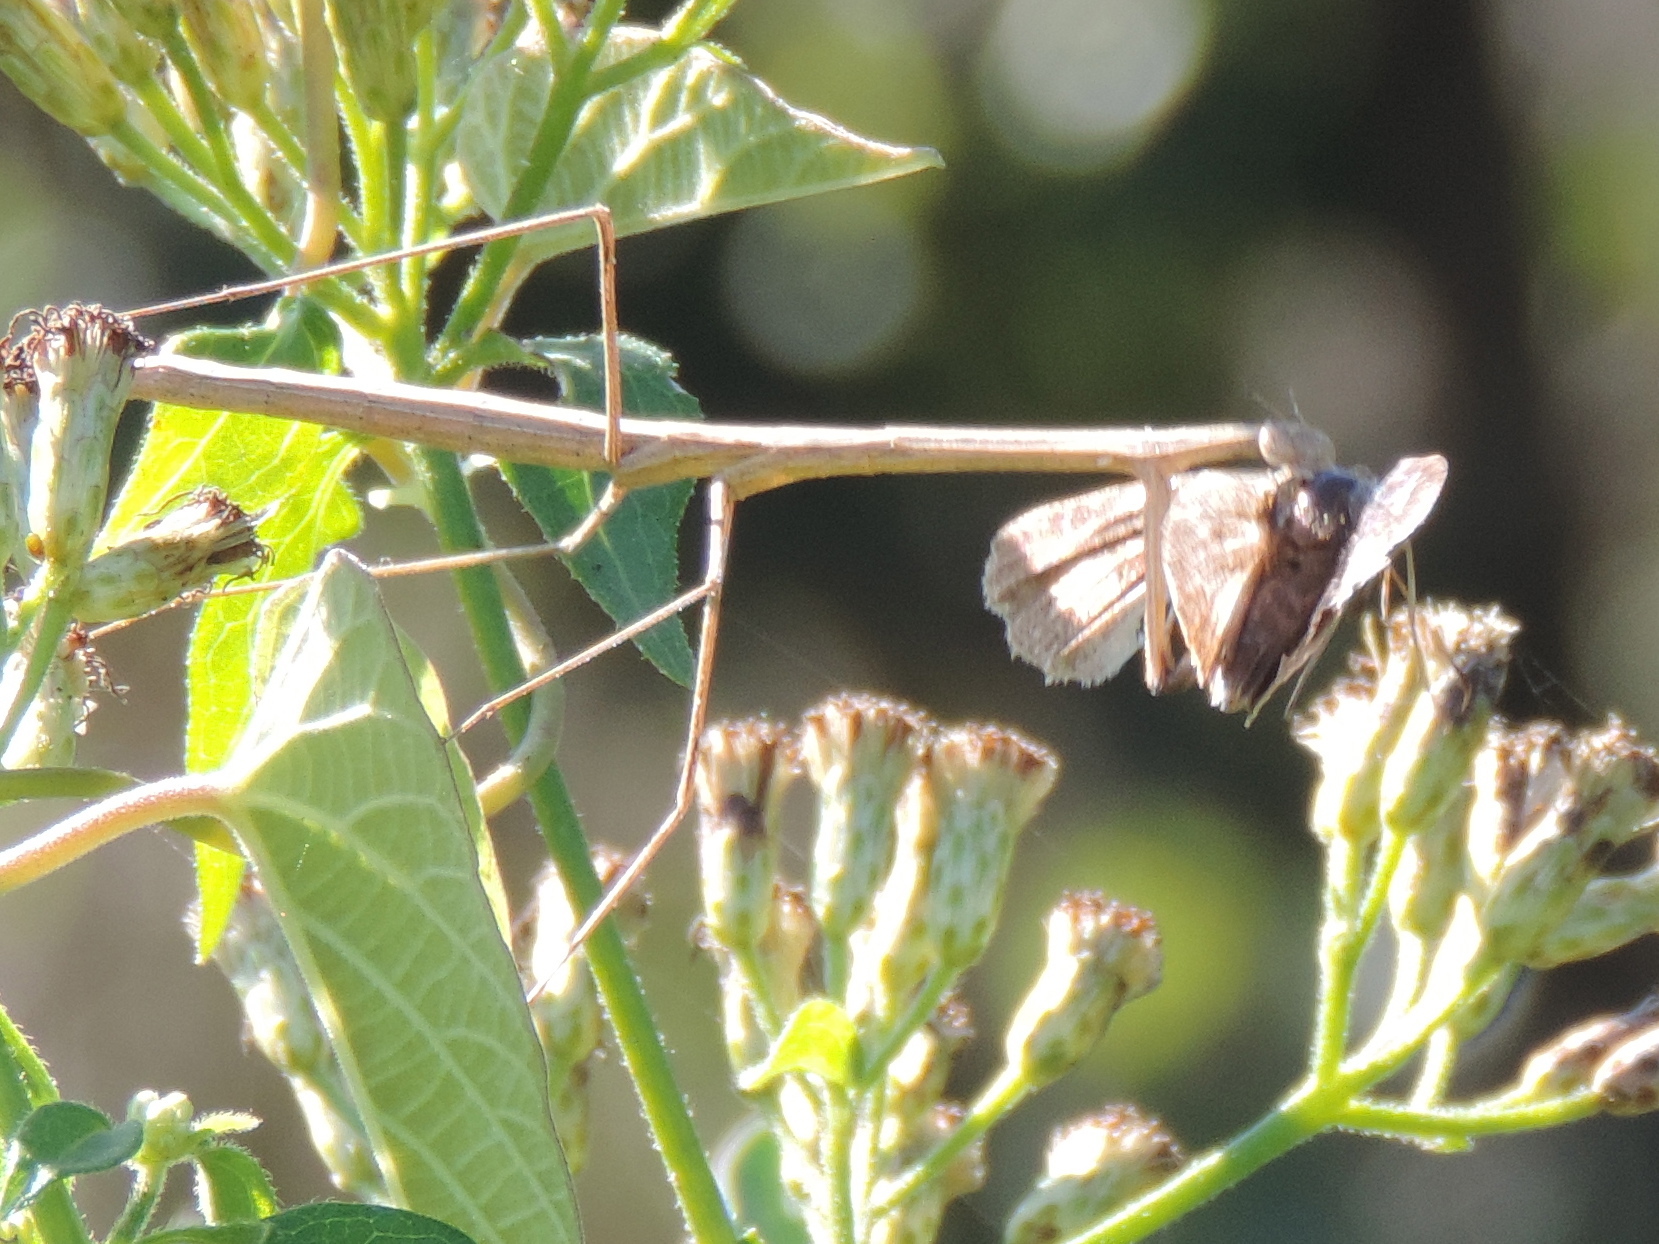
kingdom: Animalia
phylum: Arthropoda
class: Insecta
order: Mantodea
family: Thespidae
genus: Bistanta
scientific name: Bistanta mexicana
